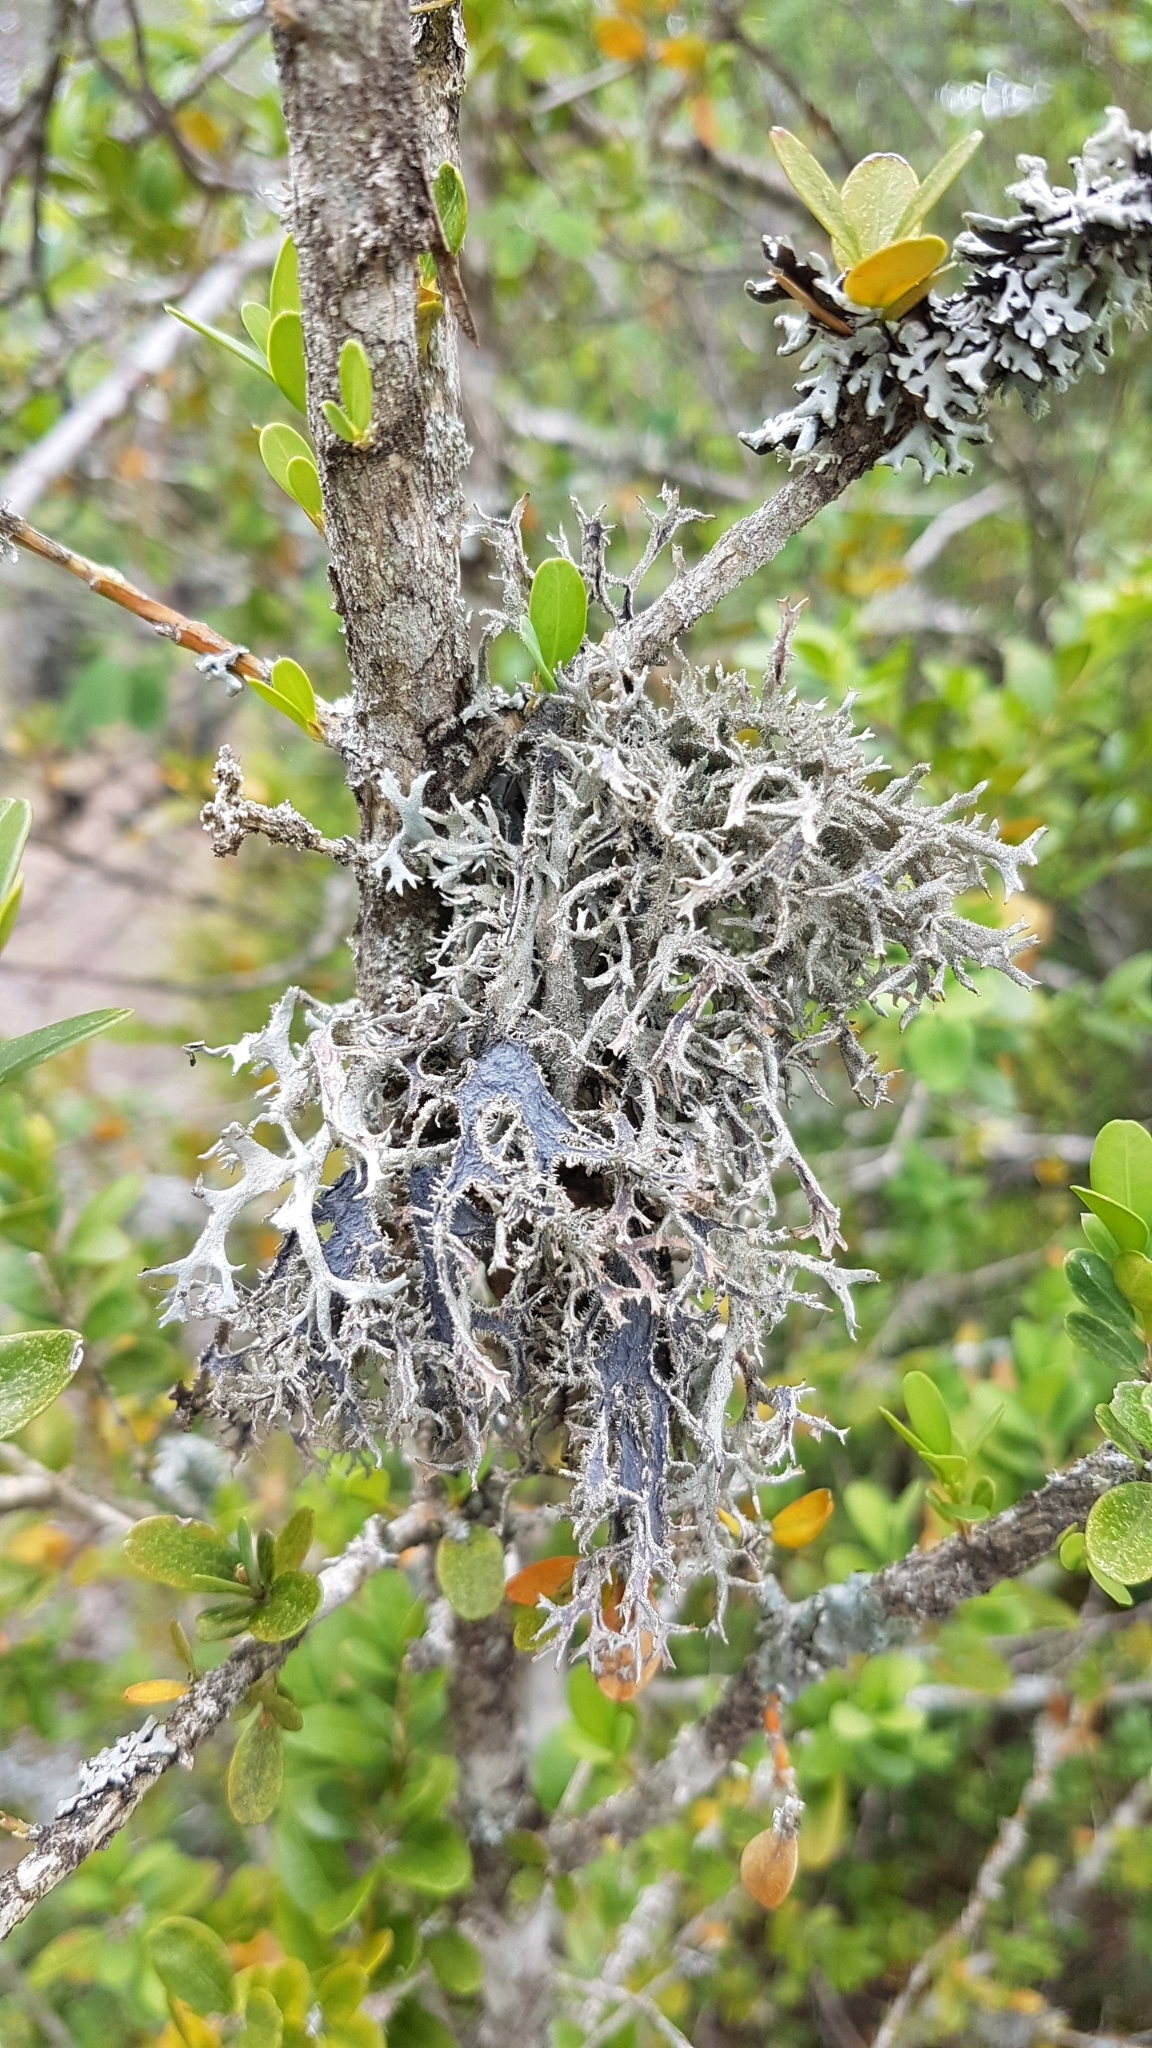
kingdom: Fungi
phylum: Ascomycota
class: Lecanoromycetes
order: Lecanorales
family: Parmeliaceae
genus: Pseudevernia
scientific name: Pseudevernia furfuracea
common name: Tree moss
